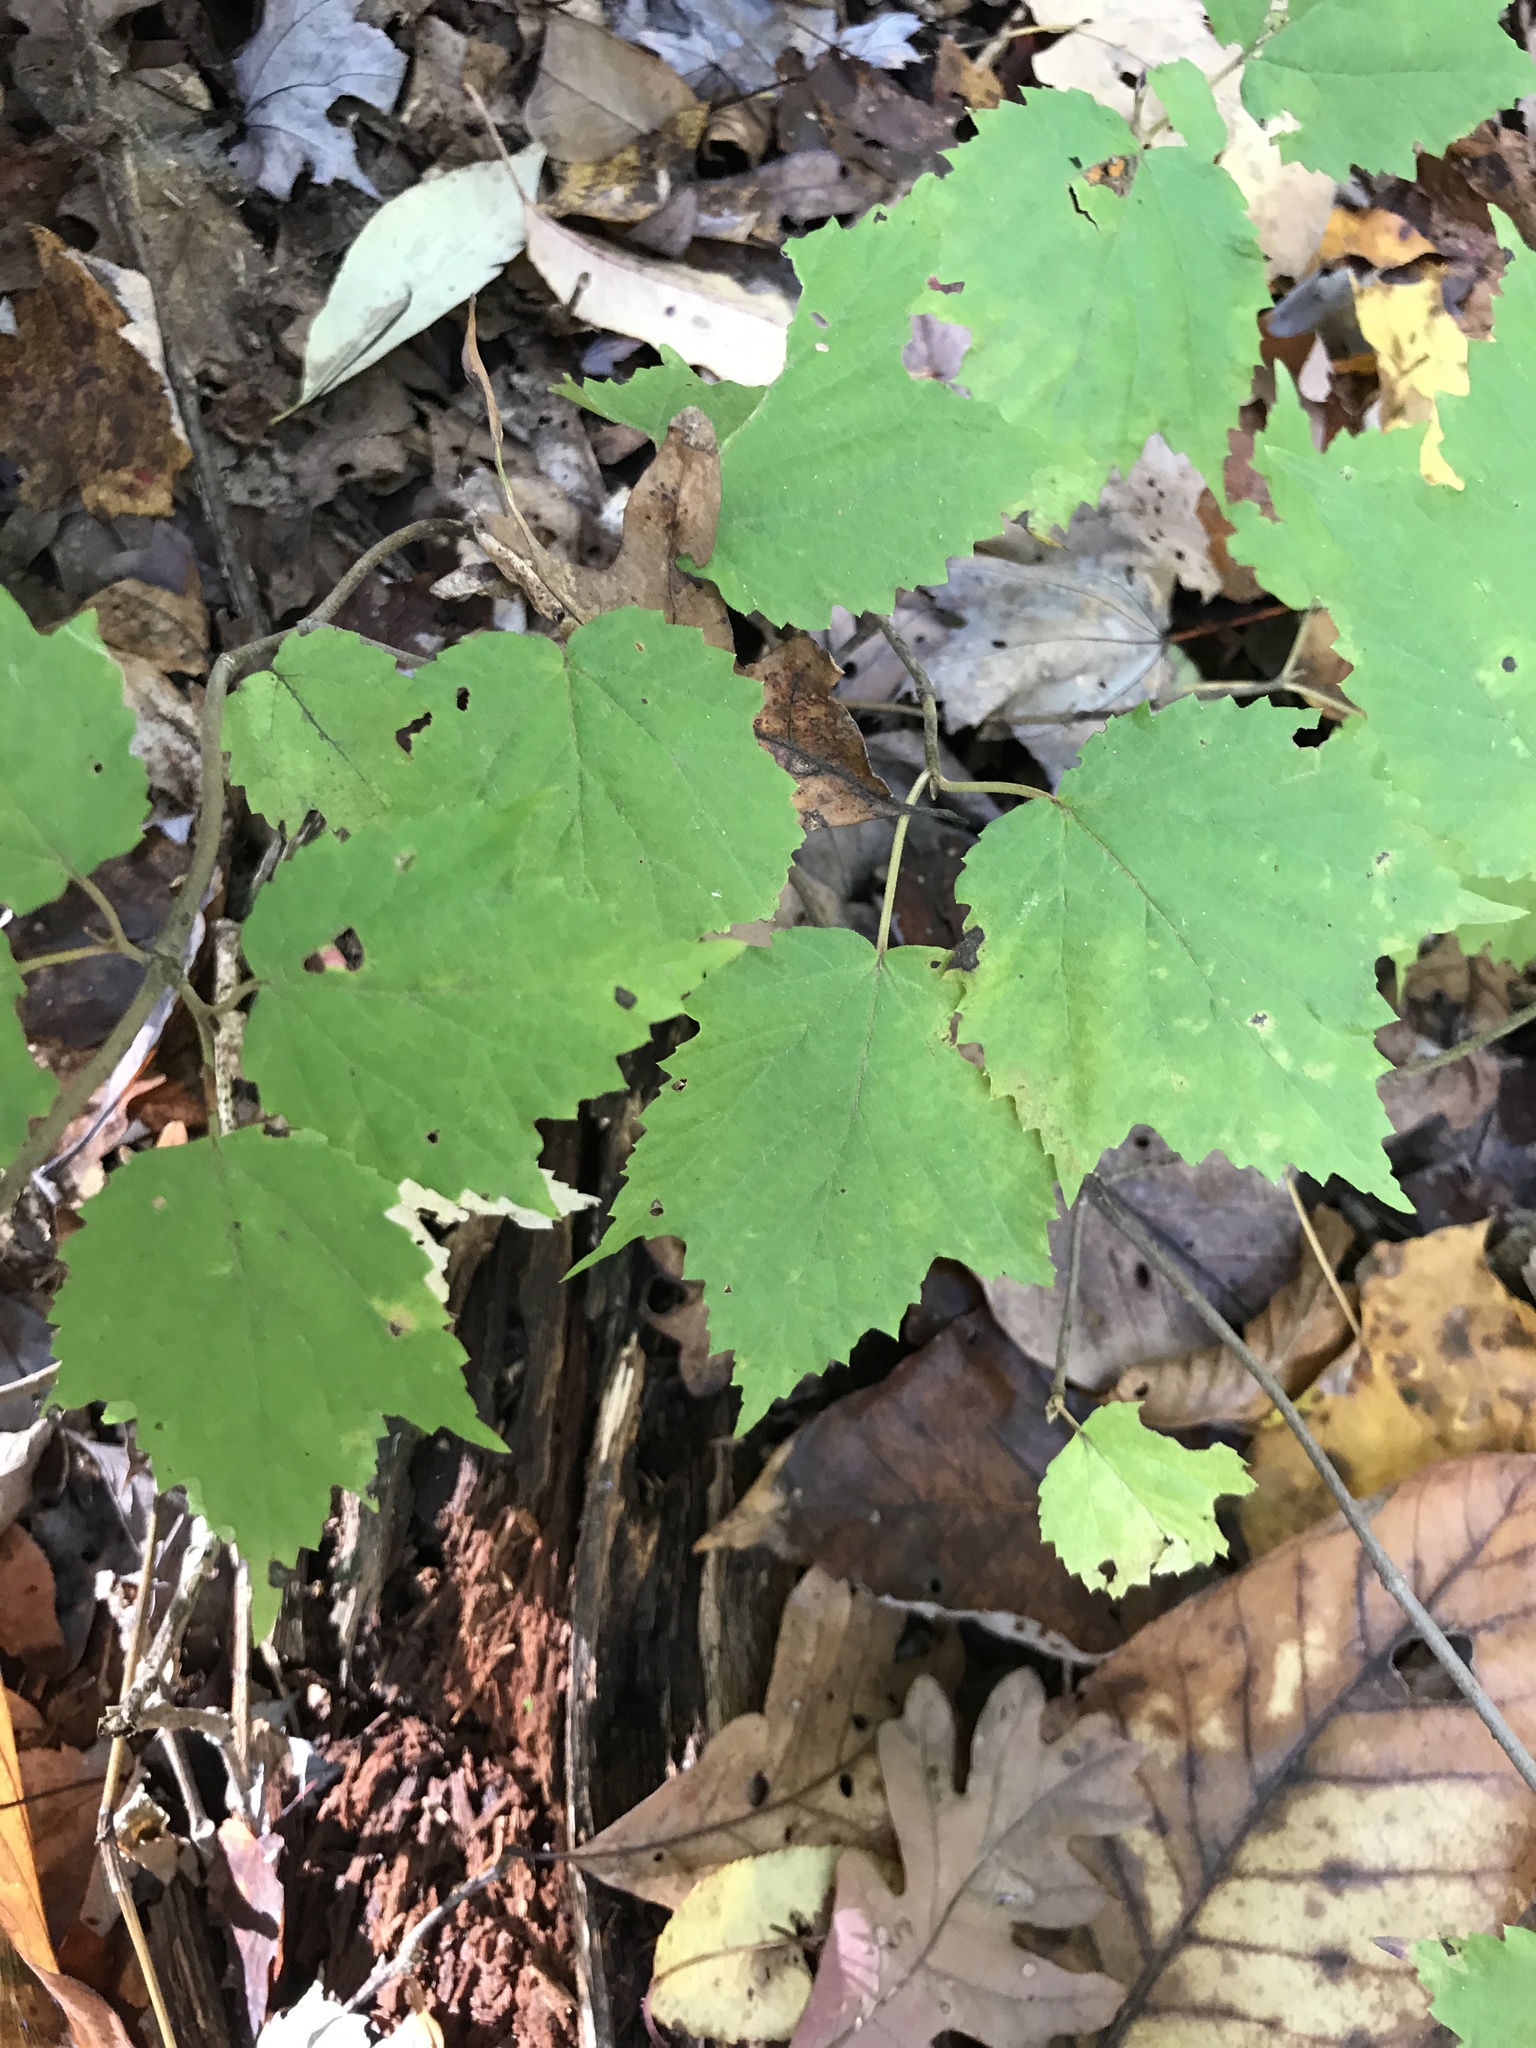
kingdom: Plantae
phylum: Tracheophyta
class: Magnoliopsida
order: Dipsacales
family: Viburnaceae
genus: Viburnum
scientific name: Viburnum acerifolium
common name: Dockmackie
